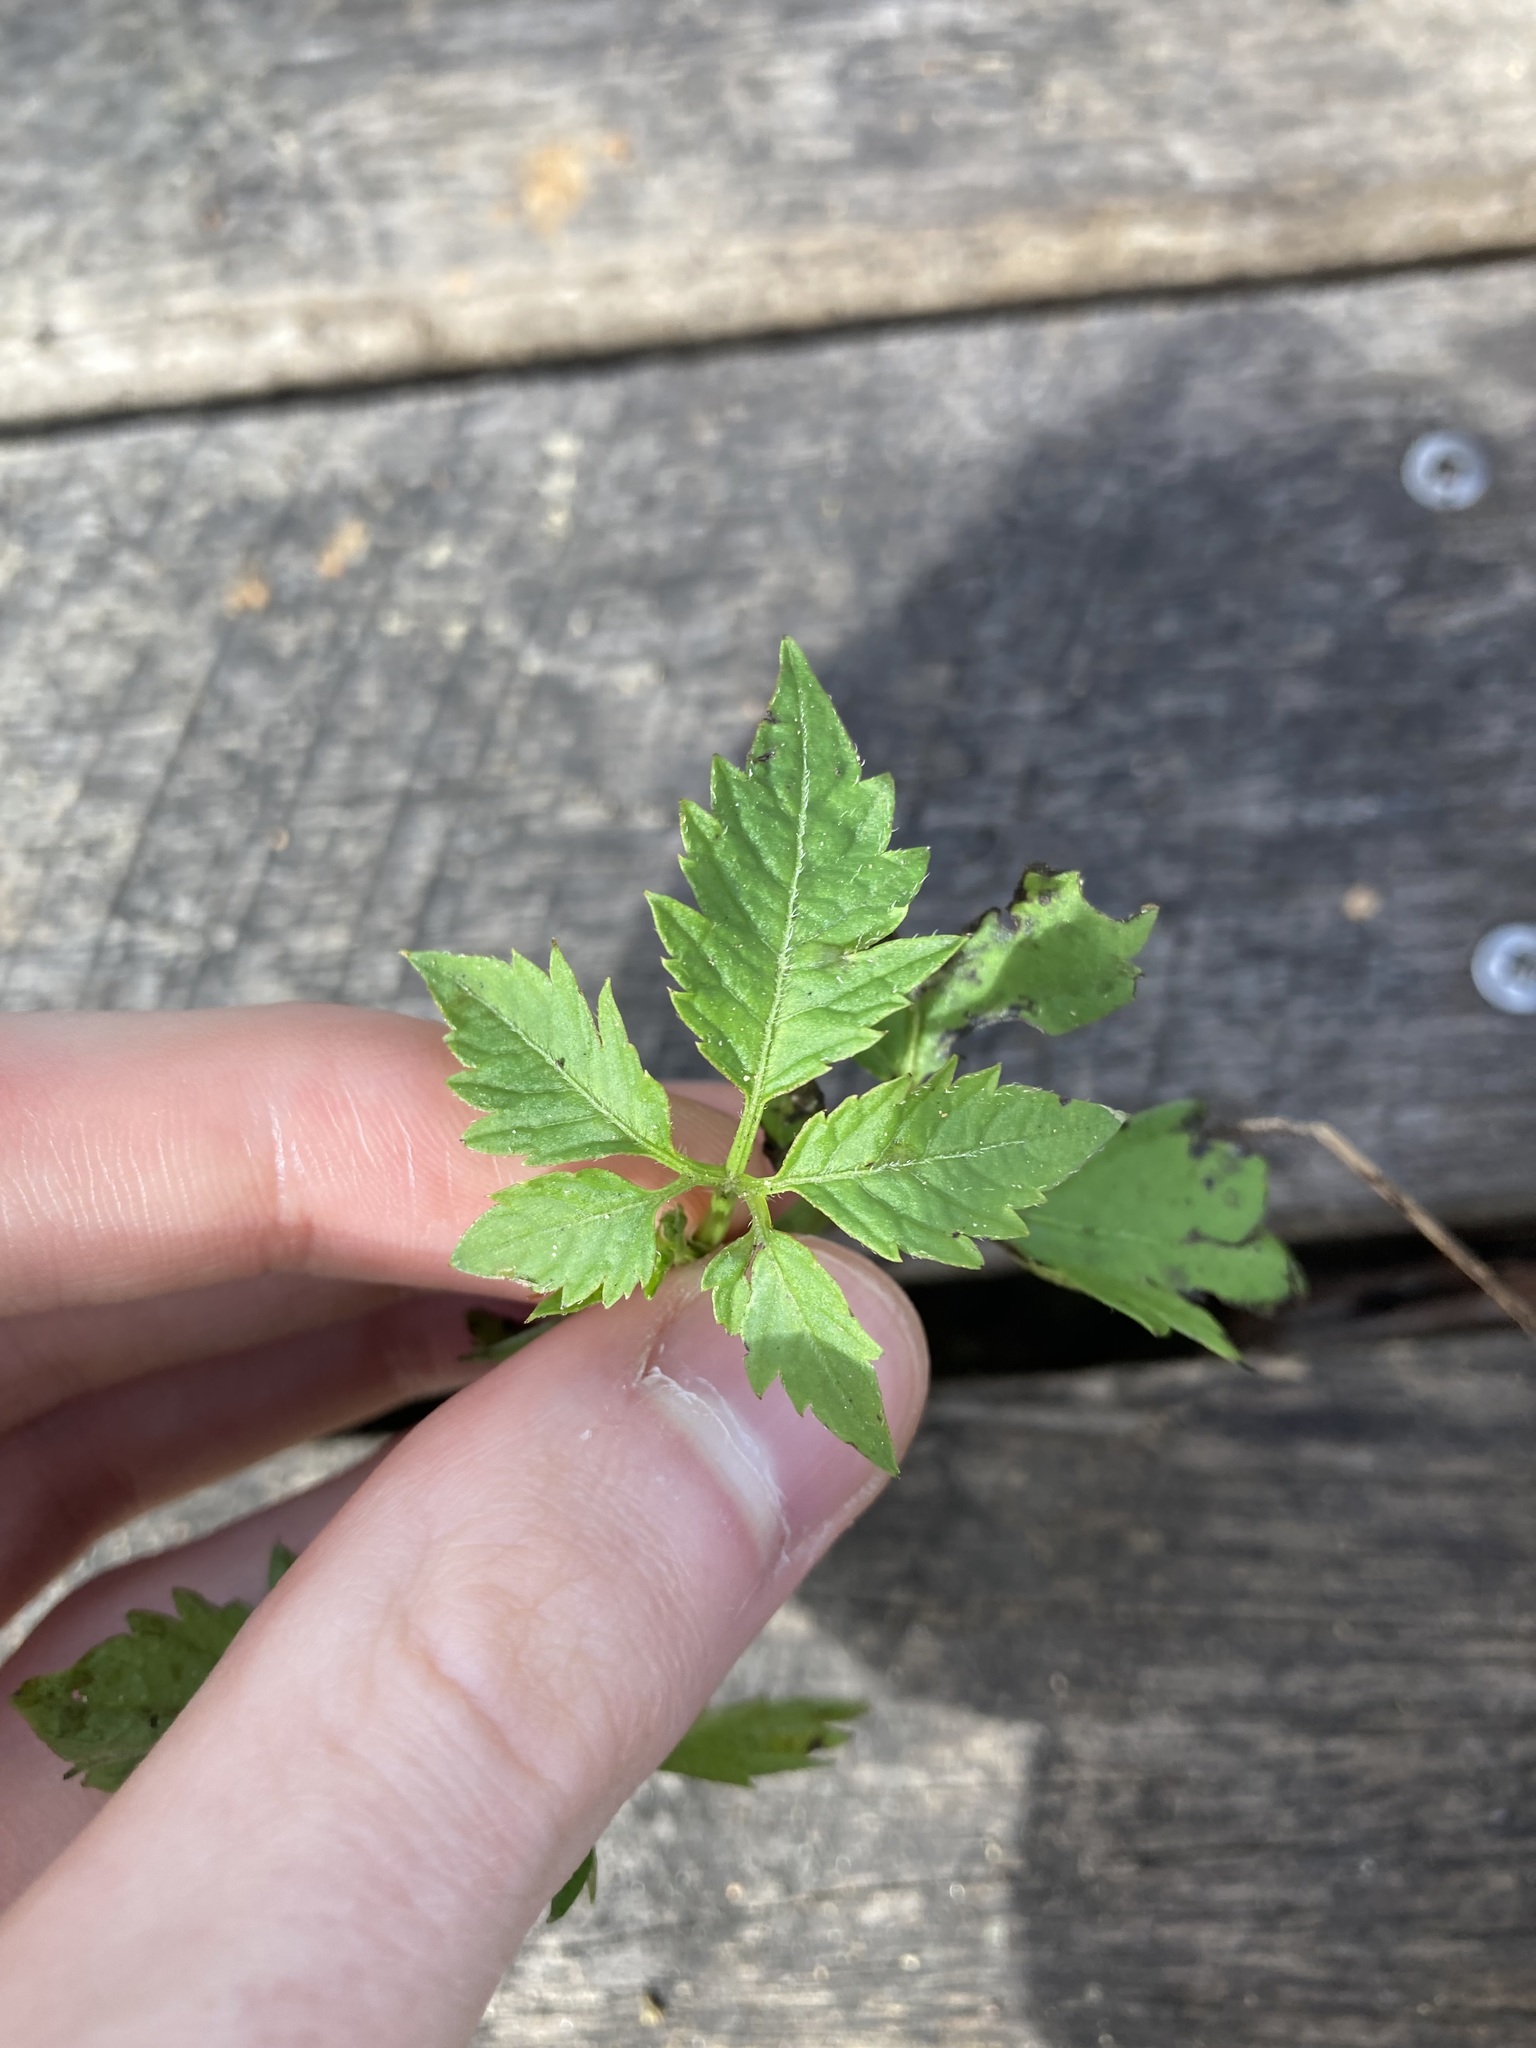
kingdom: Plantae
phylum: Tracheophyta
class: Magnoliopsida
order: Vitales
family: Vitaceae
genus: Causonis
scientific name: Causonis clematidea
